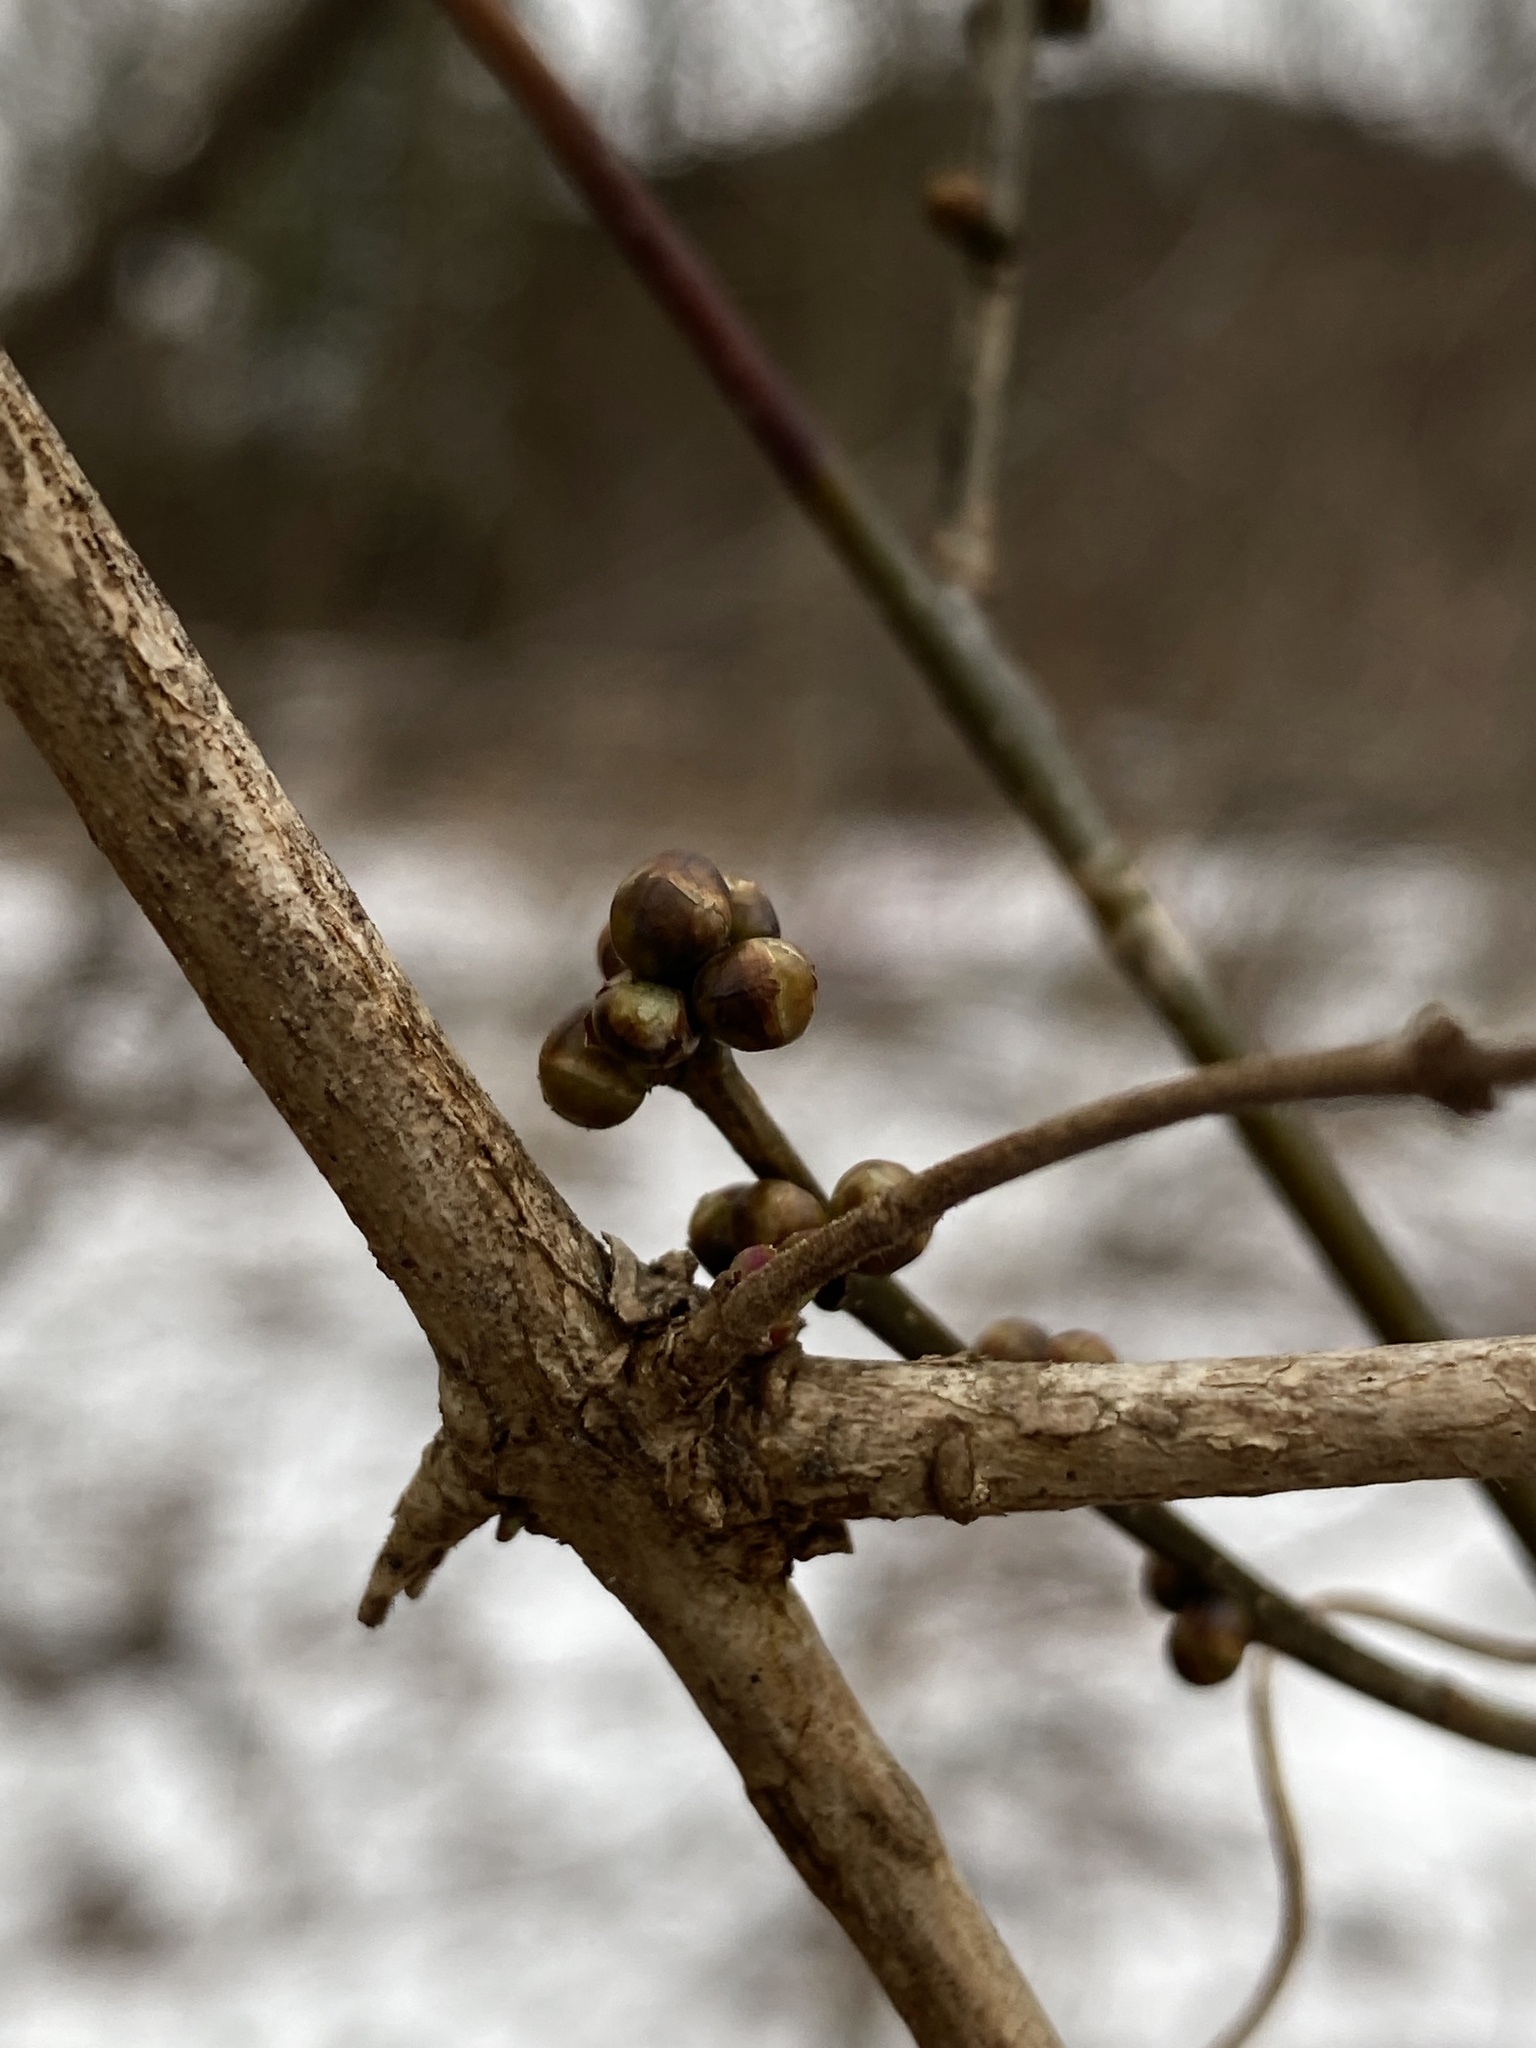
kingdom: Plantae
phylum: Tracheophyta
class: Magnoliopsida
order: Laurales
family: Lauraceae
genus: Lindera
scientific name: Lindera benzoin
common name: Spicebush
